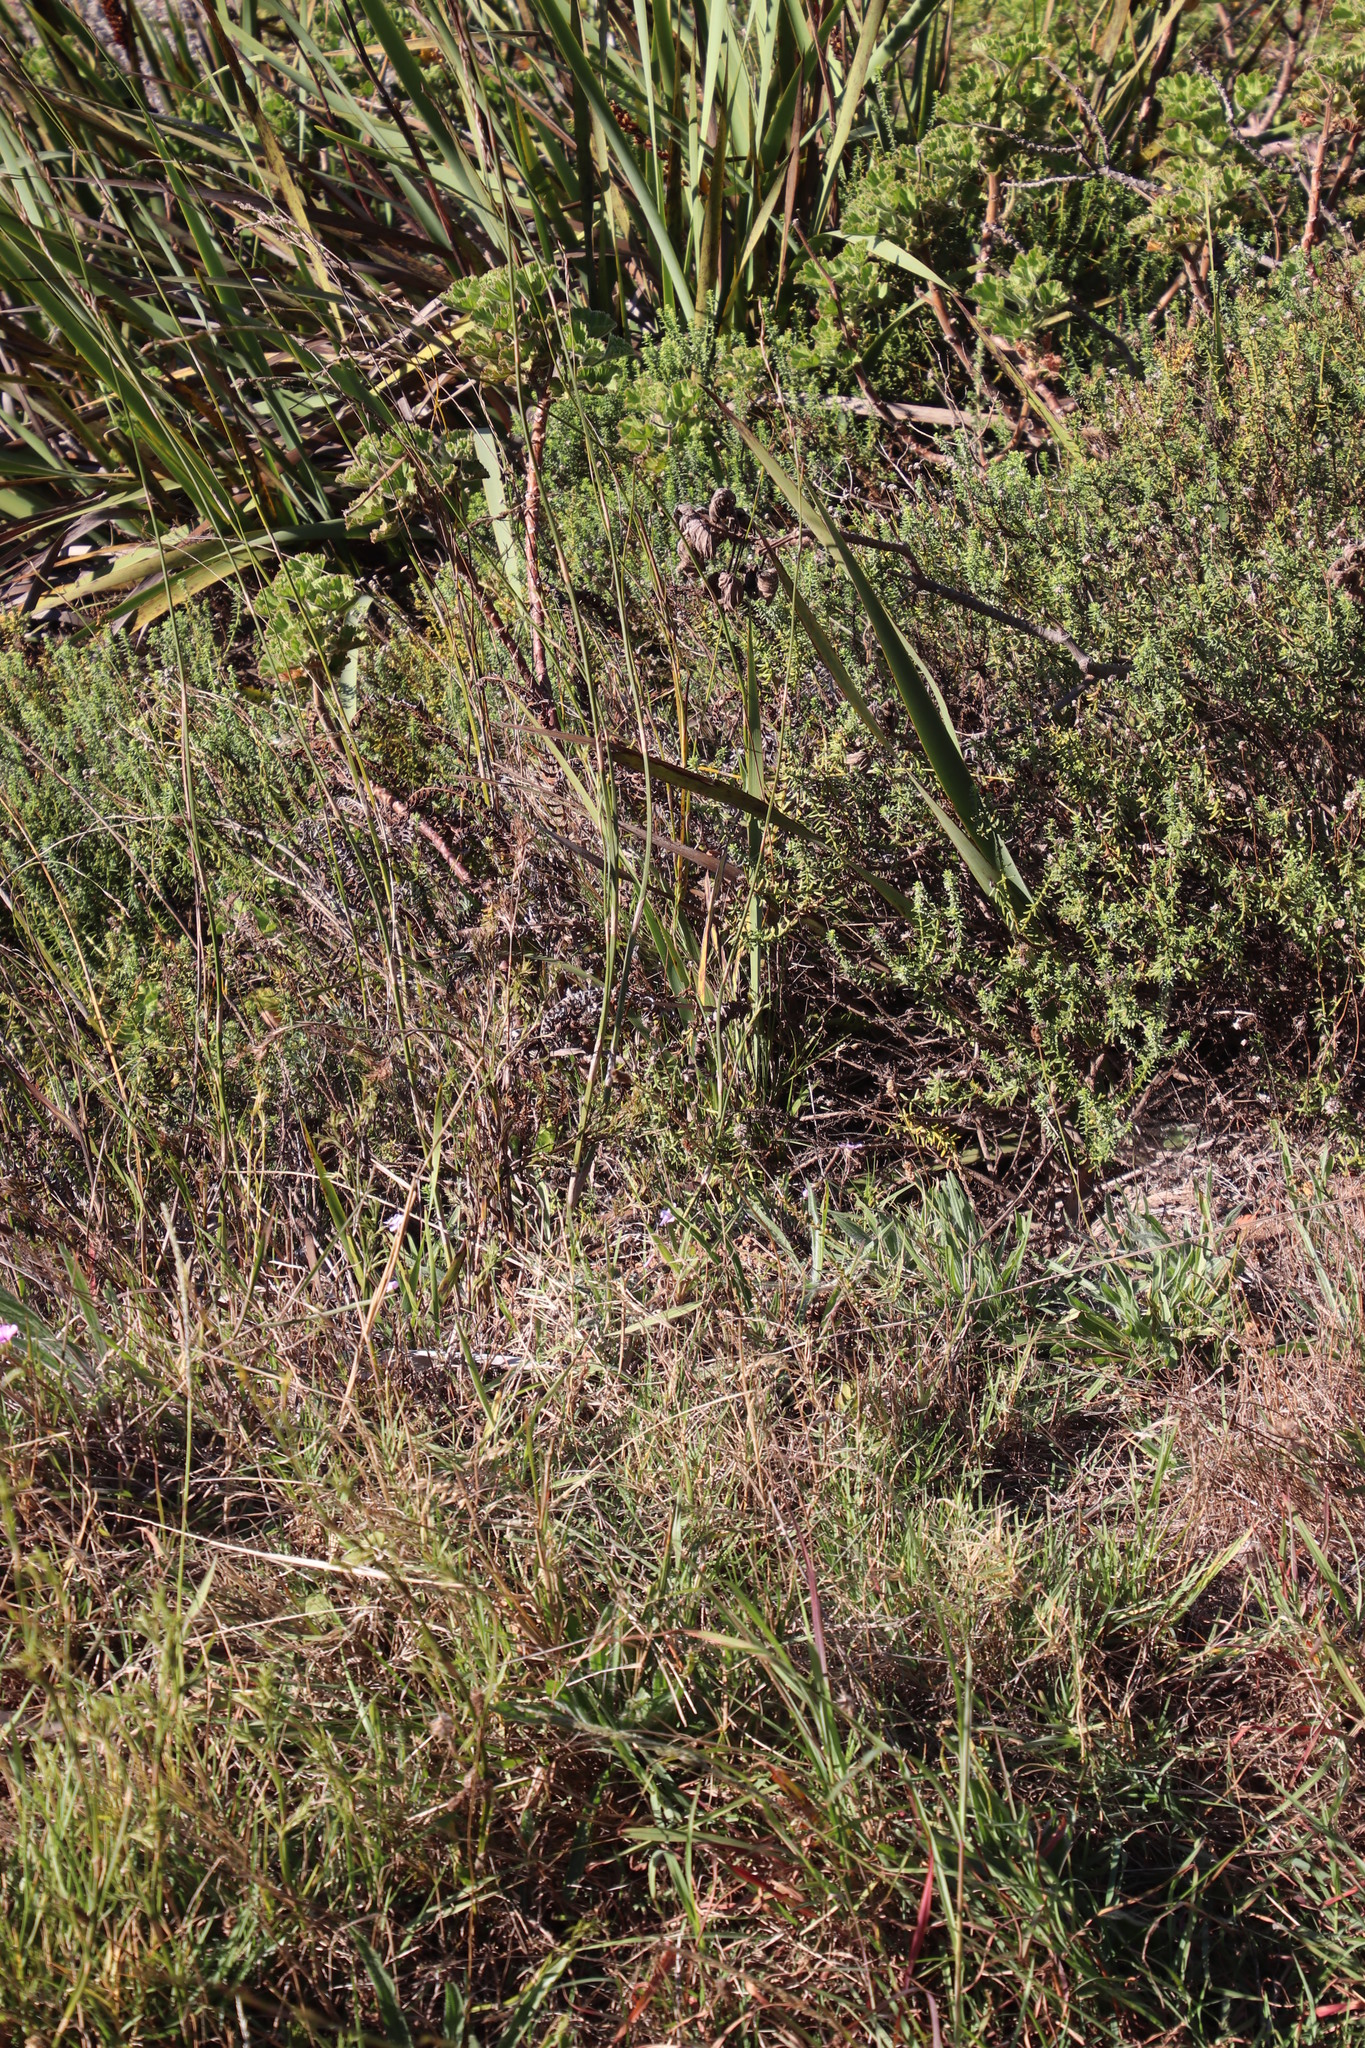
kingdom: Plantae
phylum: Tracheophyta
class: Liliopsida
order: Poales
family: Restionaceae
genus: Restio
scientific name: Restio tetragonus
